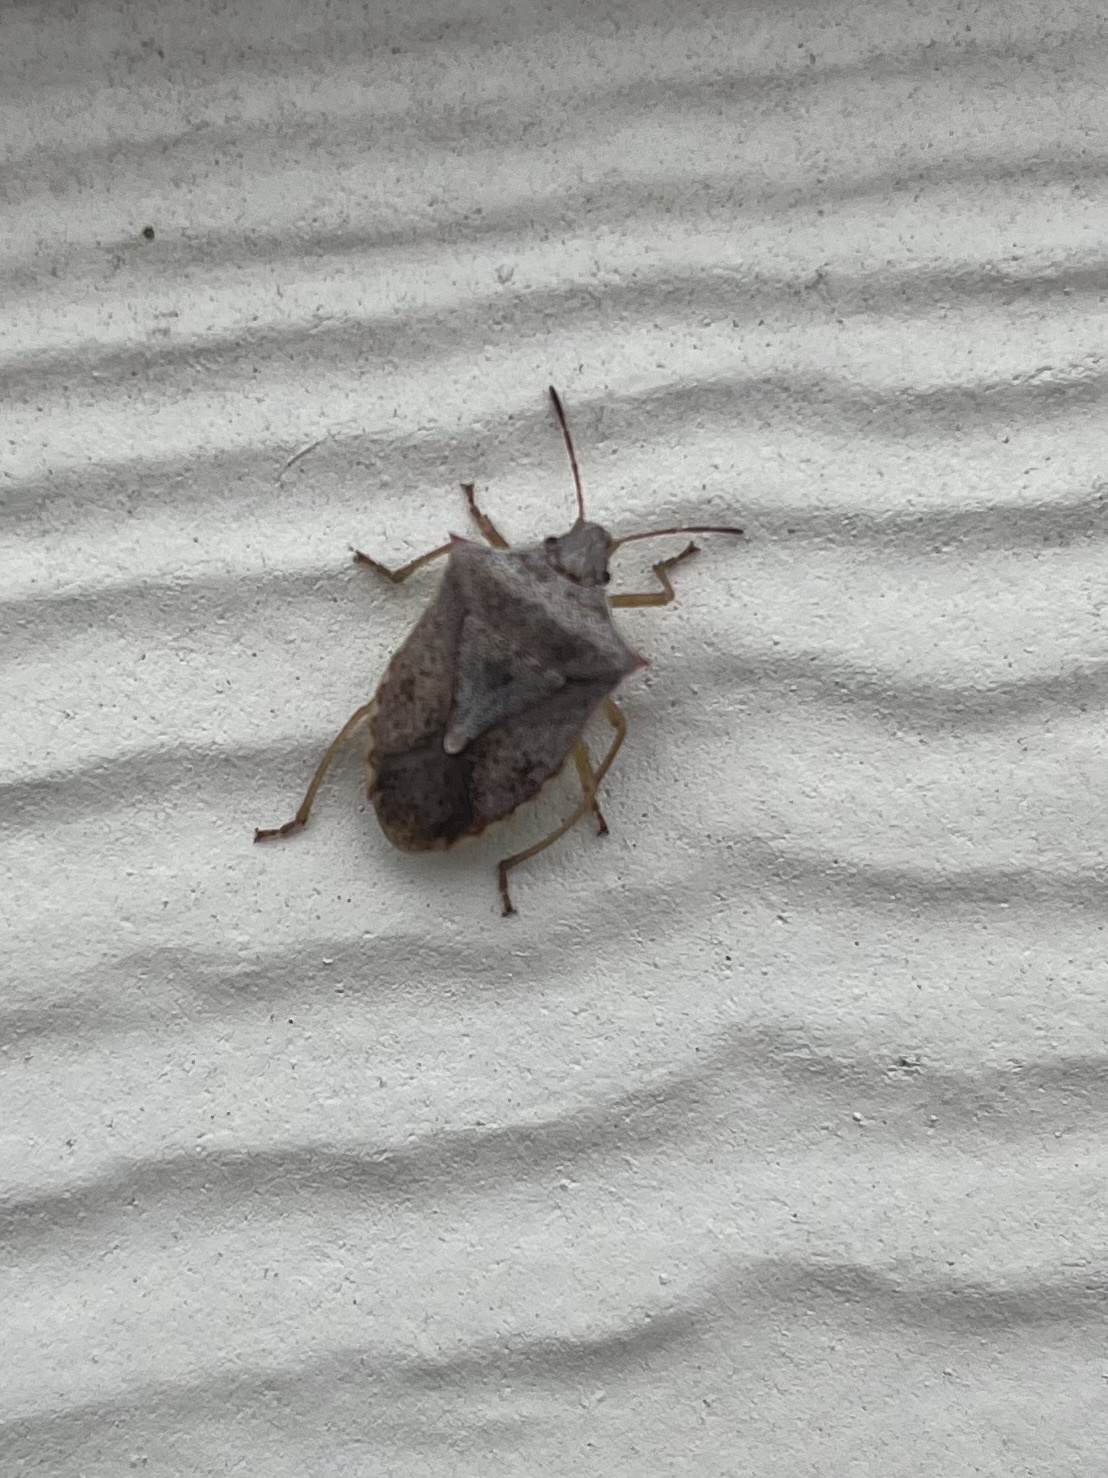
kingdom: Animalia
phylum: Arthropoda
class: Insecta
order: Hemiptera
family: Pentatomidae
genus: Euschistus
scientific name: Euschistus variolarius
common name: Onespotted stink bug
